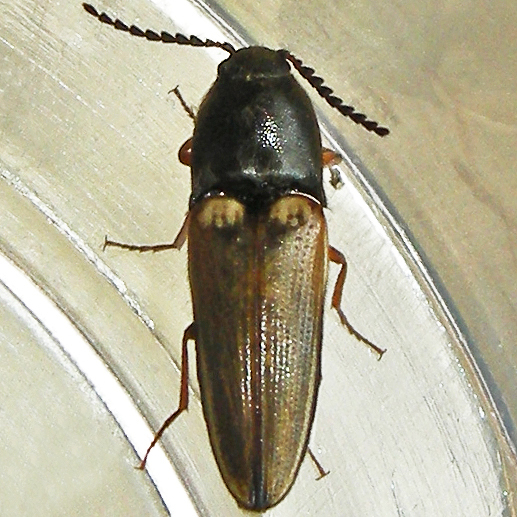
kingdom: Animalia
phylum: Arthropoda
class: Insecta
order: Coleoptera
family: Elateridae
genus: Ampedus
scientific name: Ampedus nigricollis
